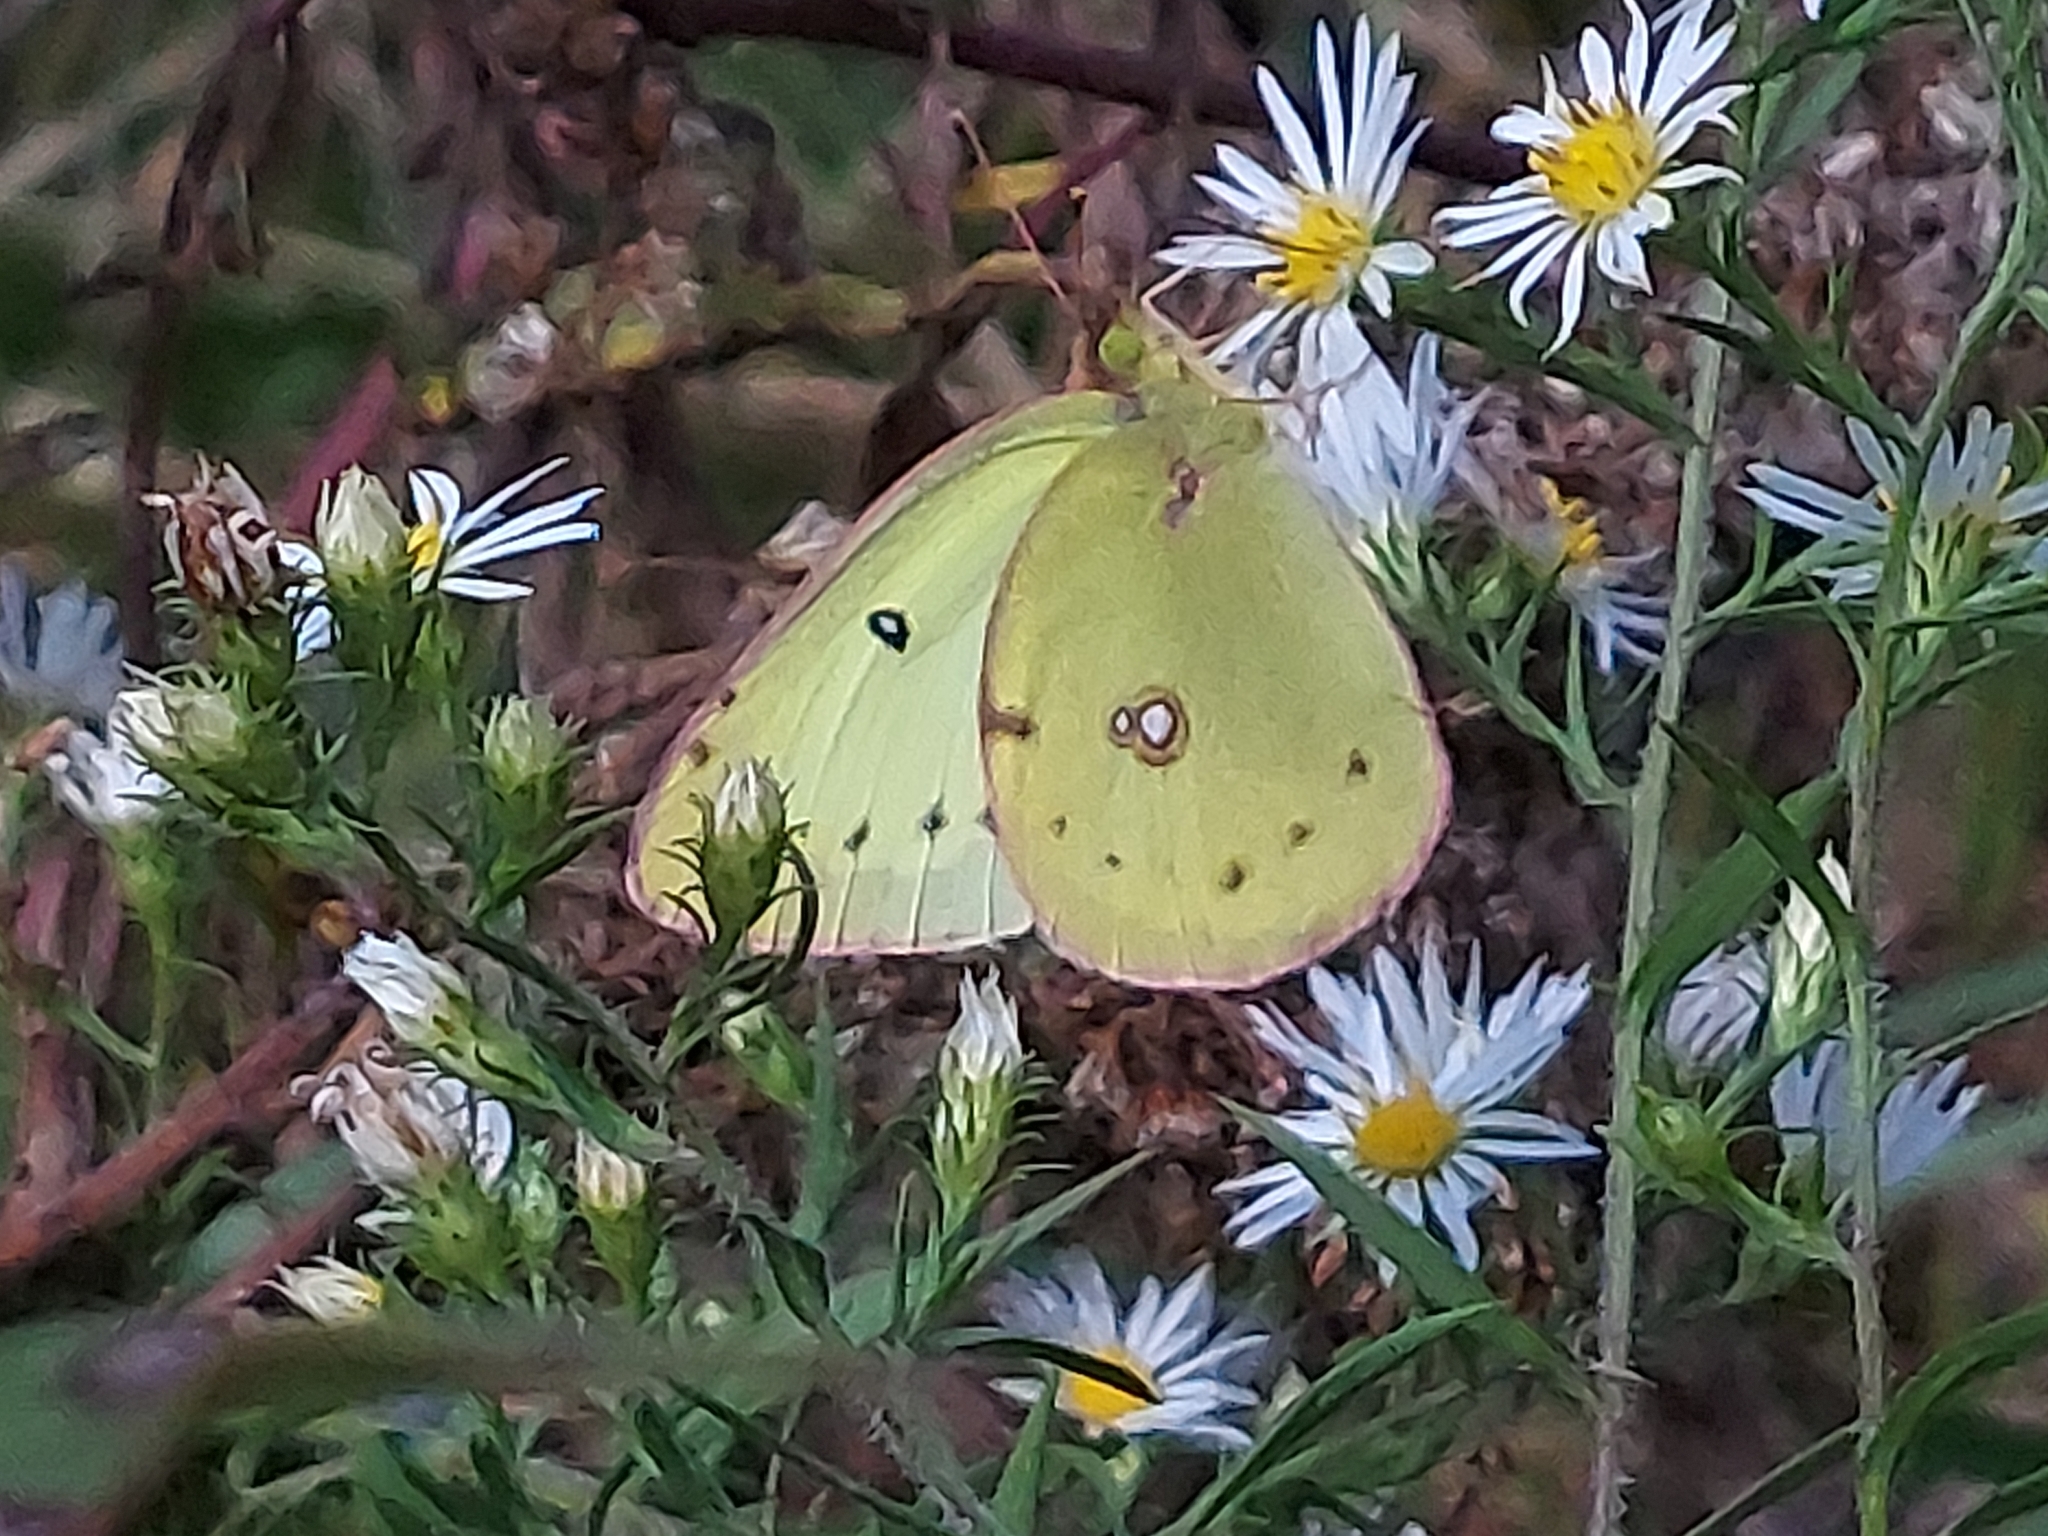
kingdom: Animalia
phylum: Arthropoda
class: Insecta
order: Lepidoptera
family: Pieridae
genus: Colias
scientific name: Colias philodice
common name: Clouded sulphur
